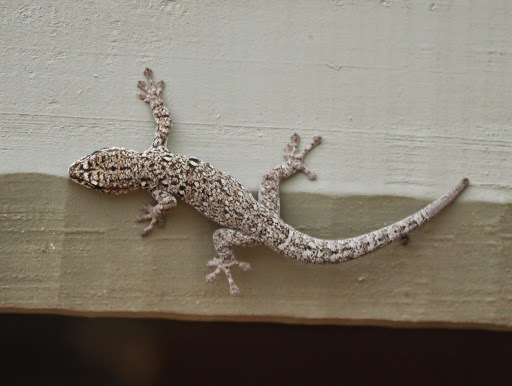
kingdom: Animalia
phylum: Chordata
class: Squamata
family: Gekkonidae
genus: Lygodactylus
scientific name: Lygodactylus capensis
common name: Cape dwarf gecko
